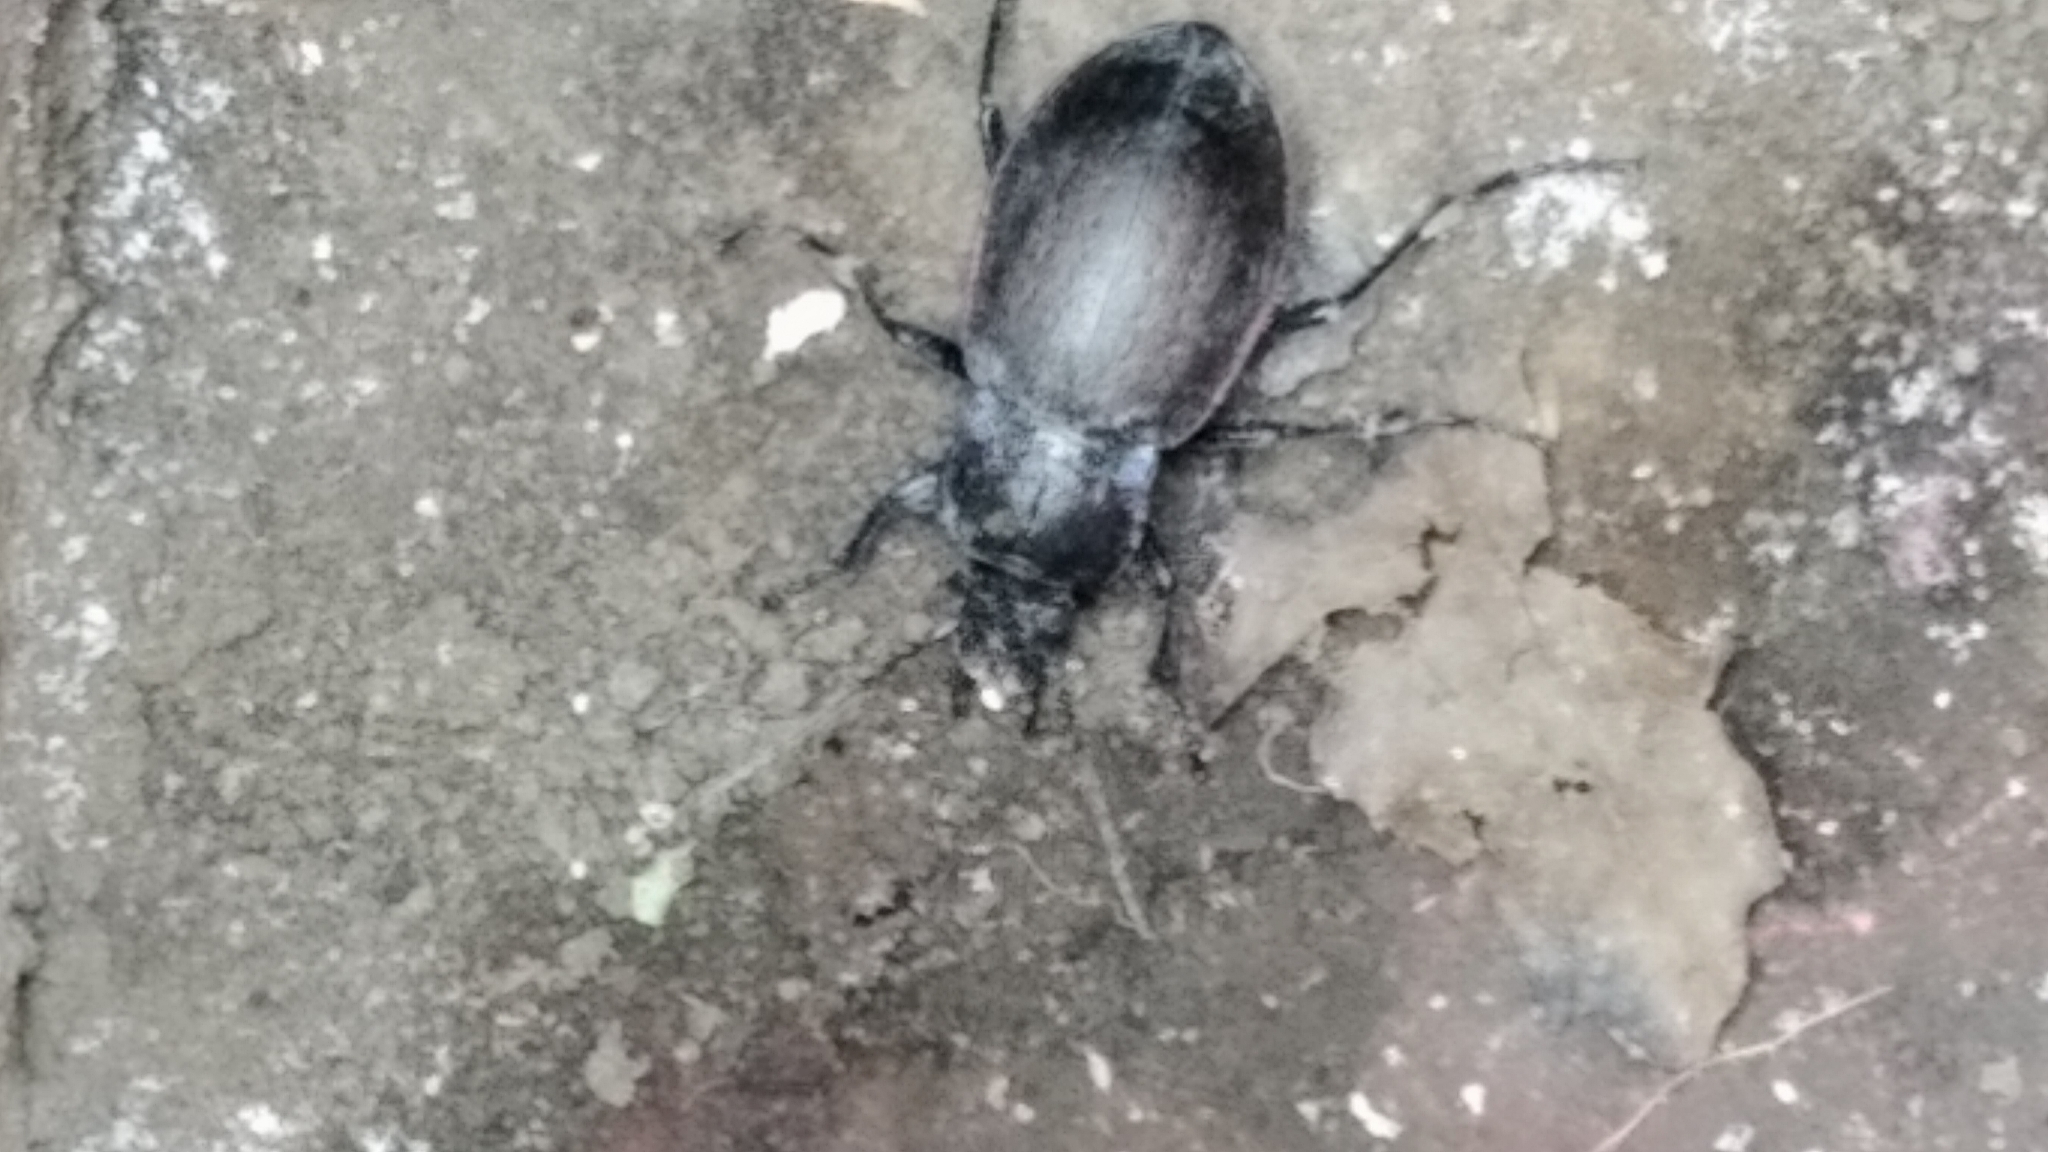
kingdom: Animalia
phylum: Arthropoda
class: Insecta
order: Coleoptera
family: Carabidae
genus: Carabus
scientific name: Carabus nemoralis
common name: European ground beetle
